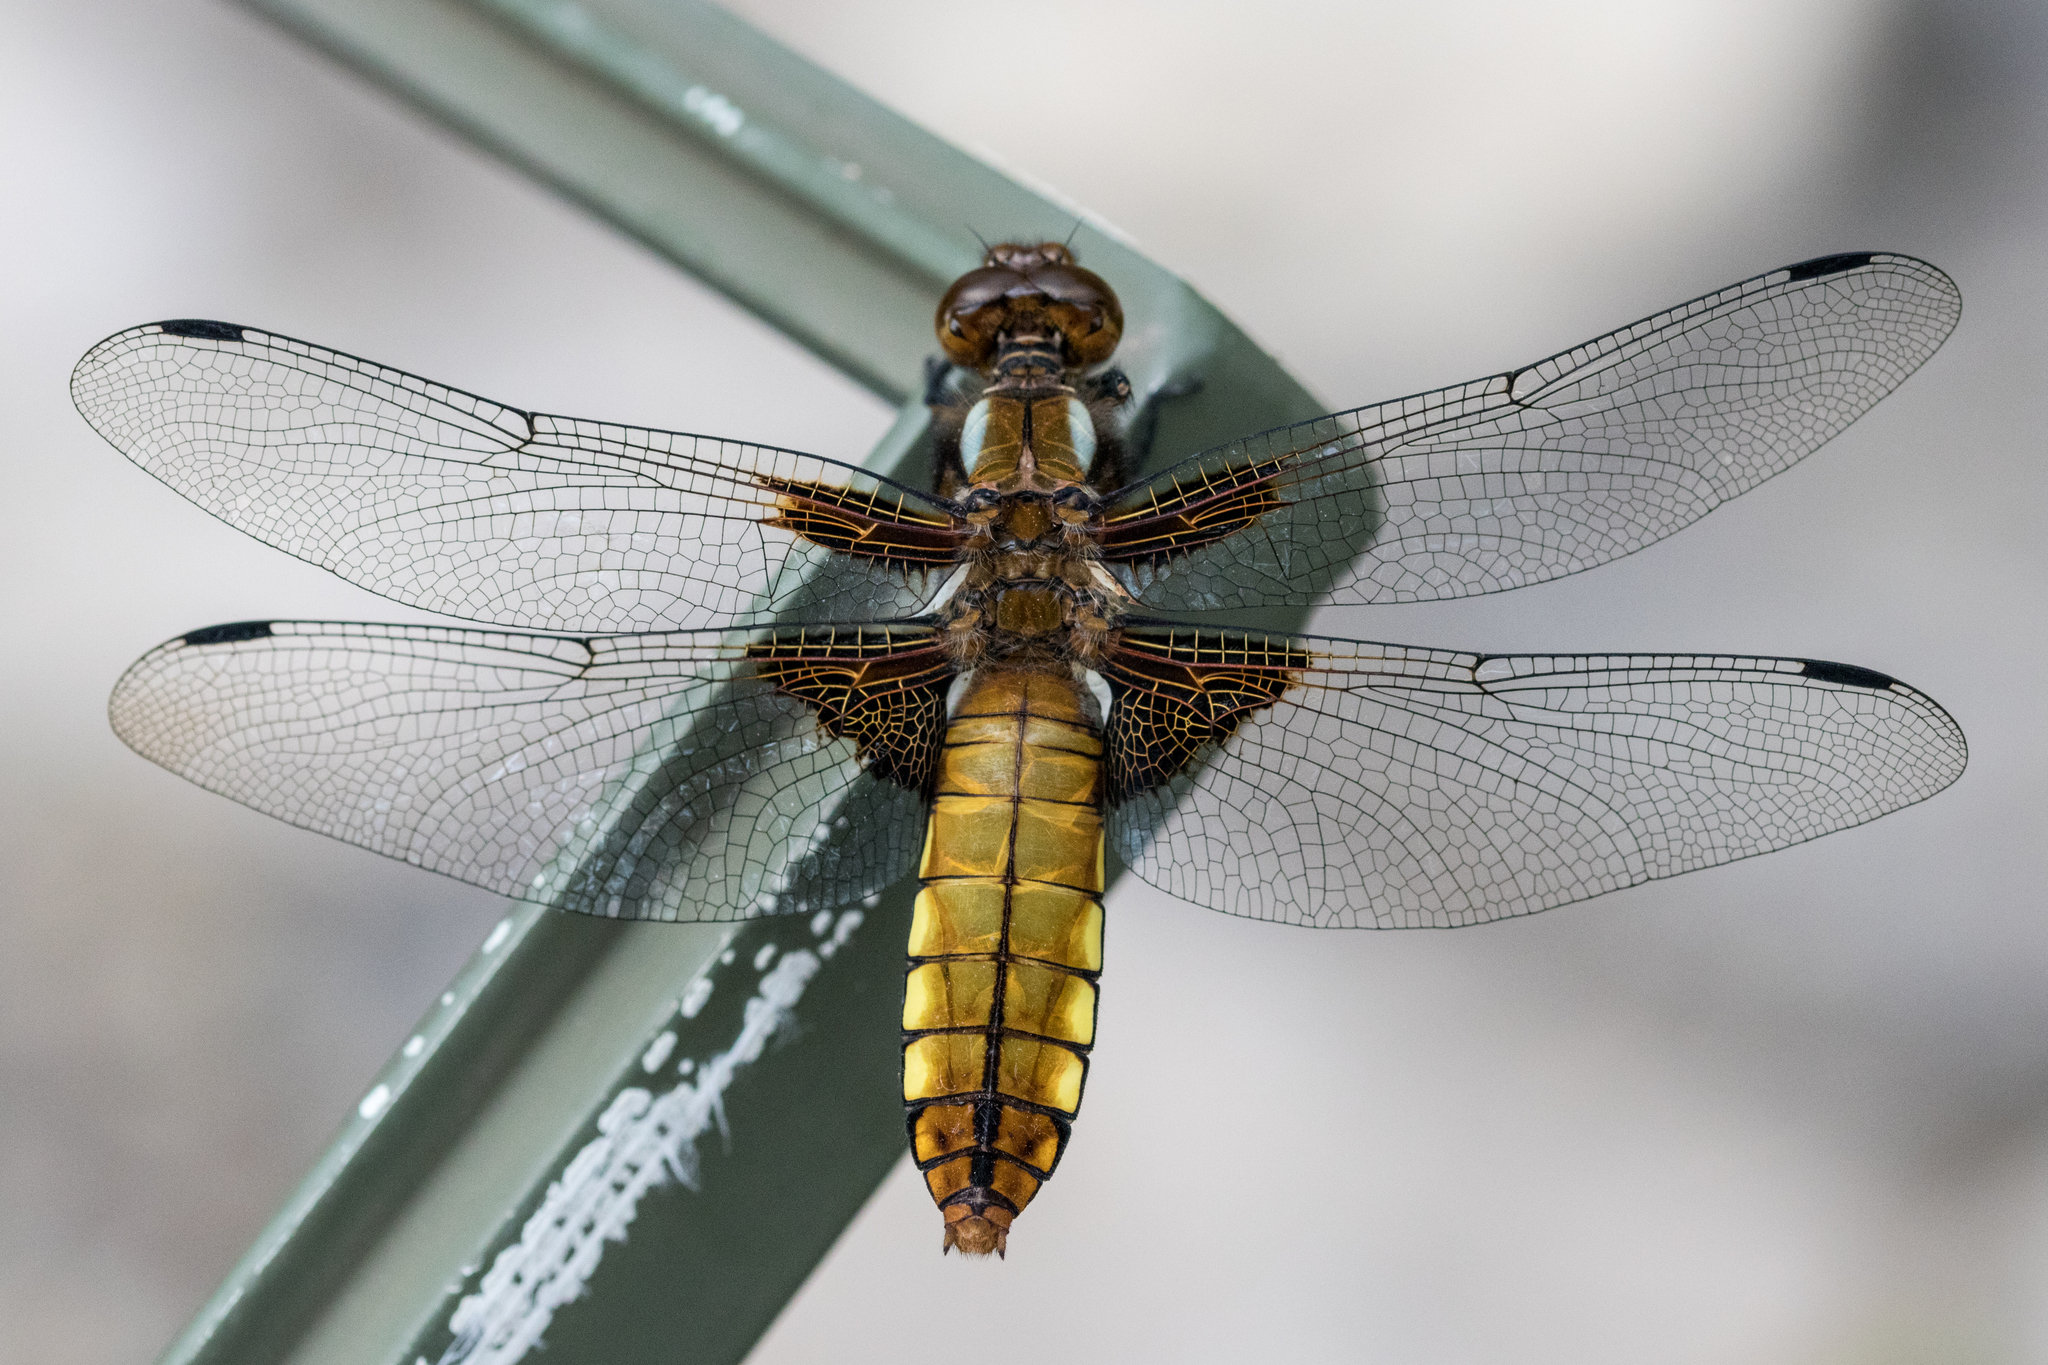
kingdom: Animalia
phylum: Arthropoda
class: Insecta
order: Odonata
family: Libellulidae
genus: Libellula
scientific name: Libellula depressa
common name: Broad-bodied chaser
